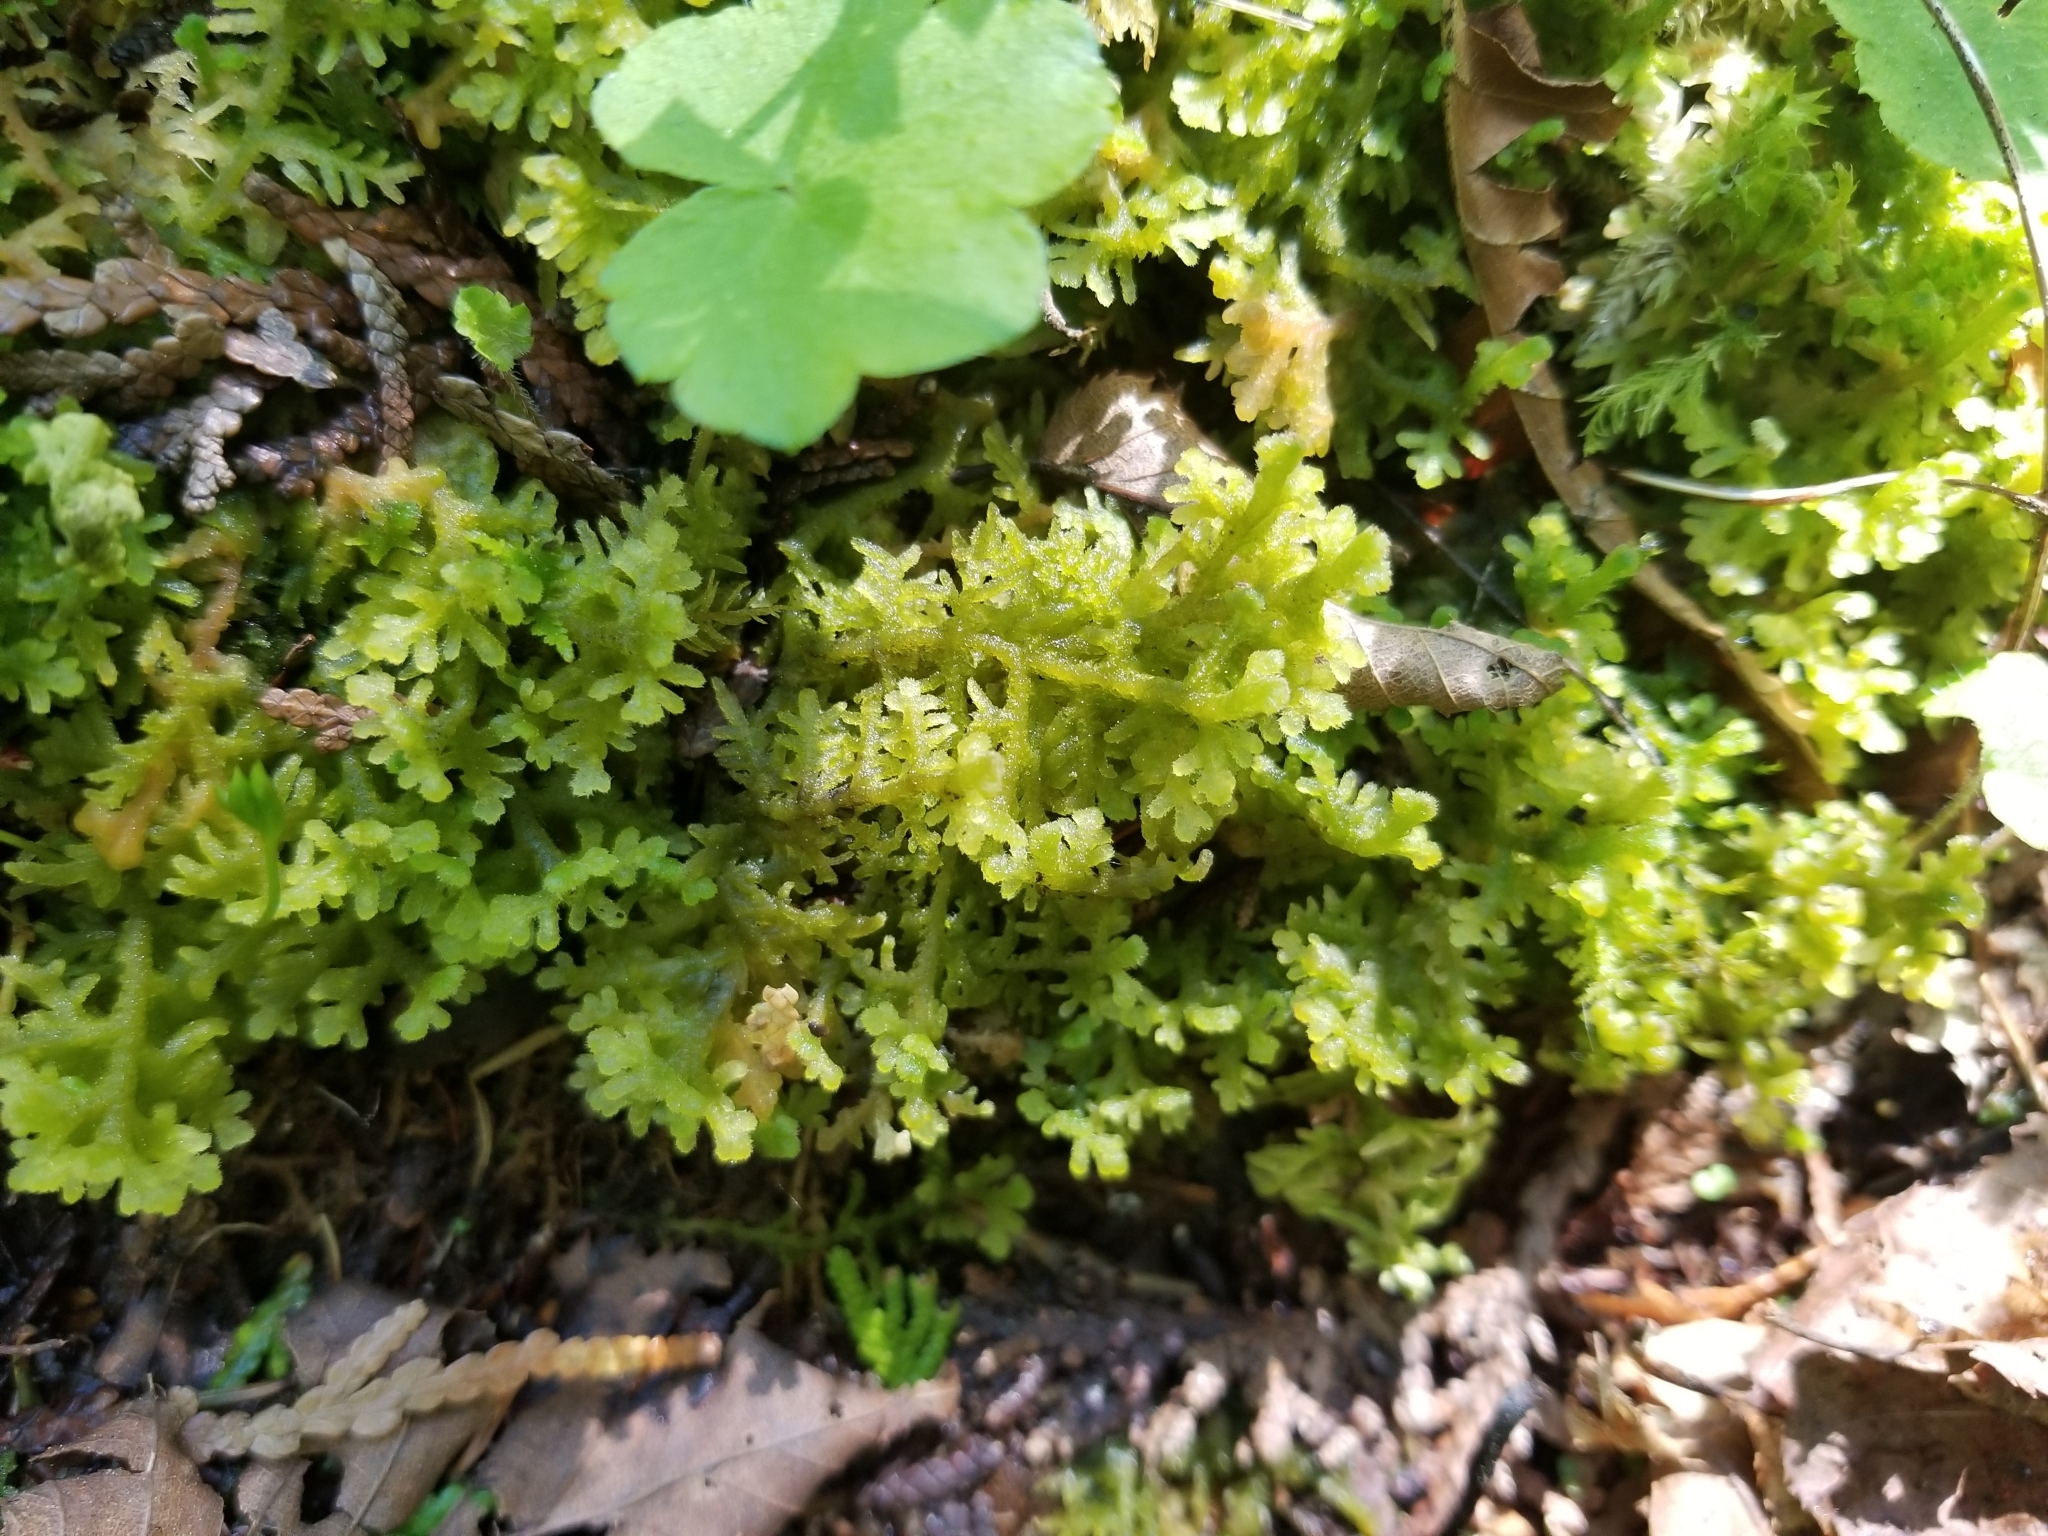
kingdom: Plantae
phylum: Marchantiophyta
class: Jungermanniopsida
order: Jungermanniales
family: Trichocoleaceae
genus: Trichocolea
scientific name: Trichocolea tomentella
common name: Woolly liverwort
